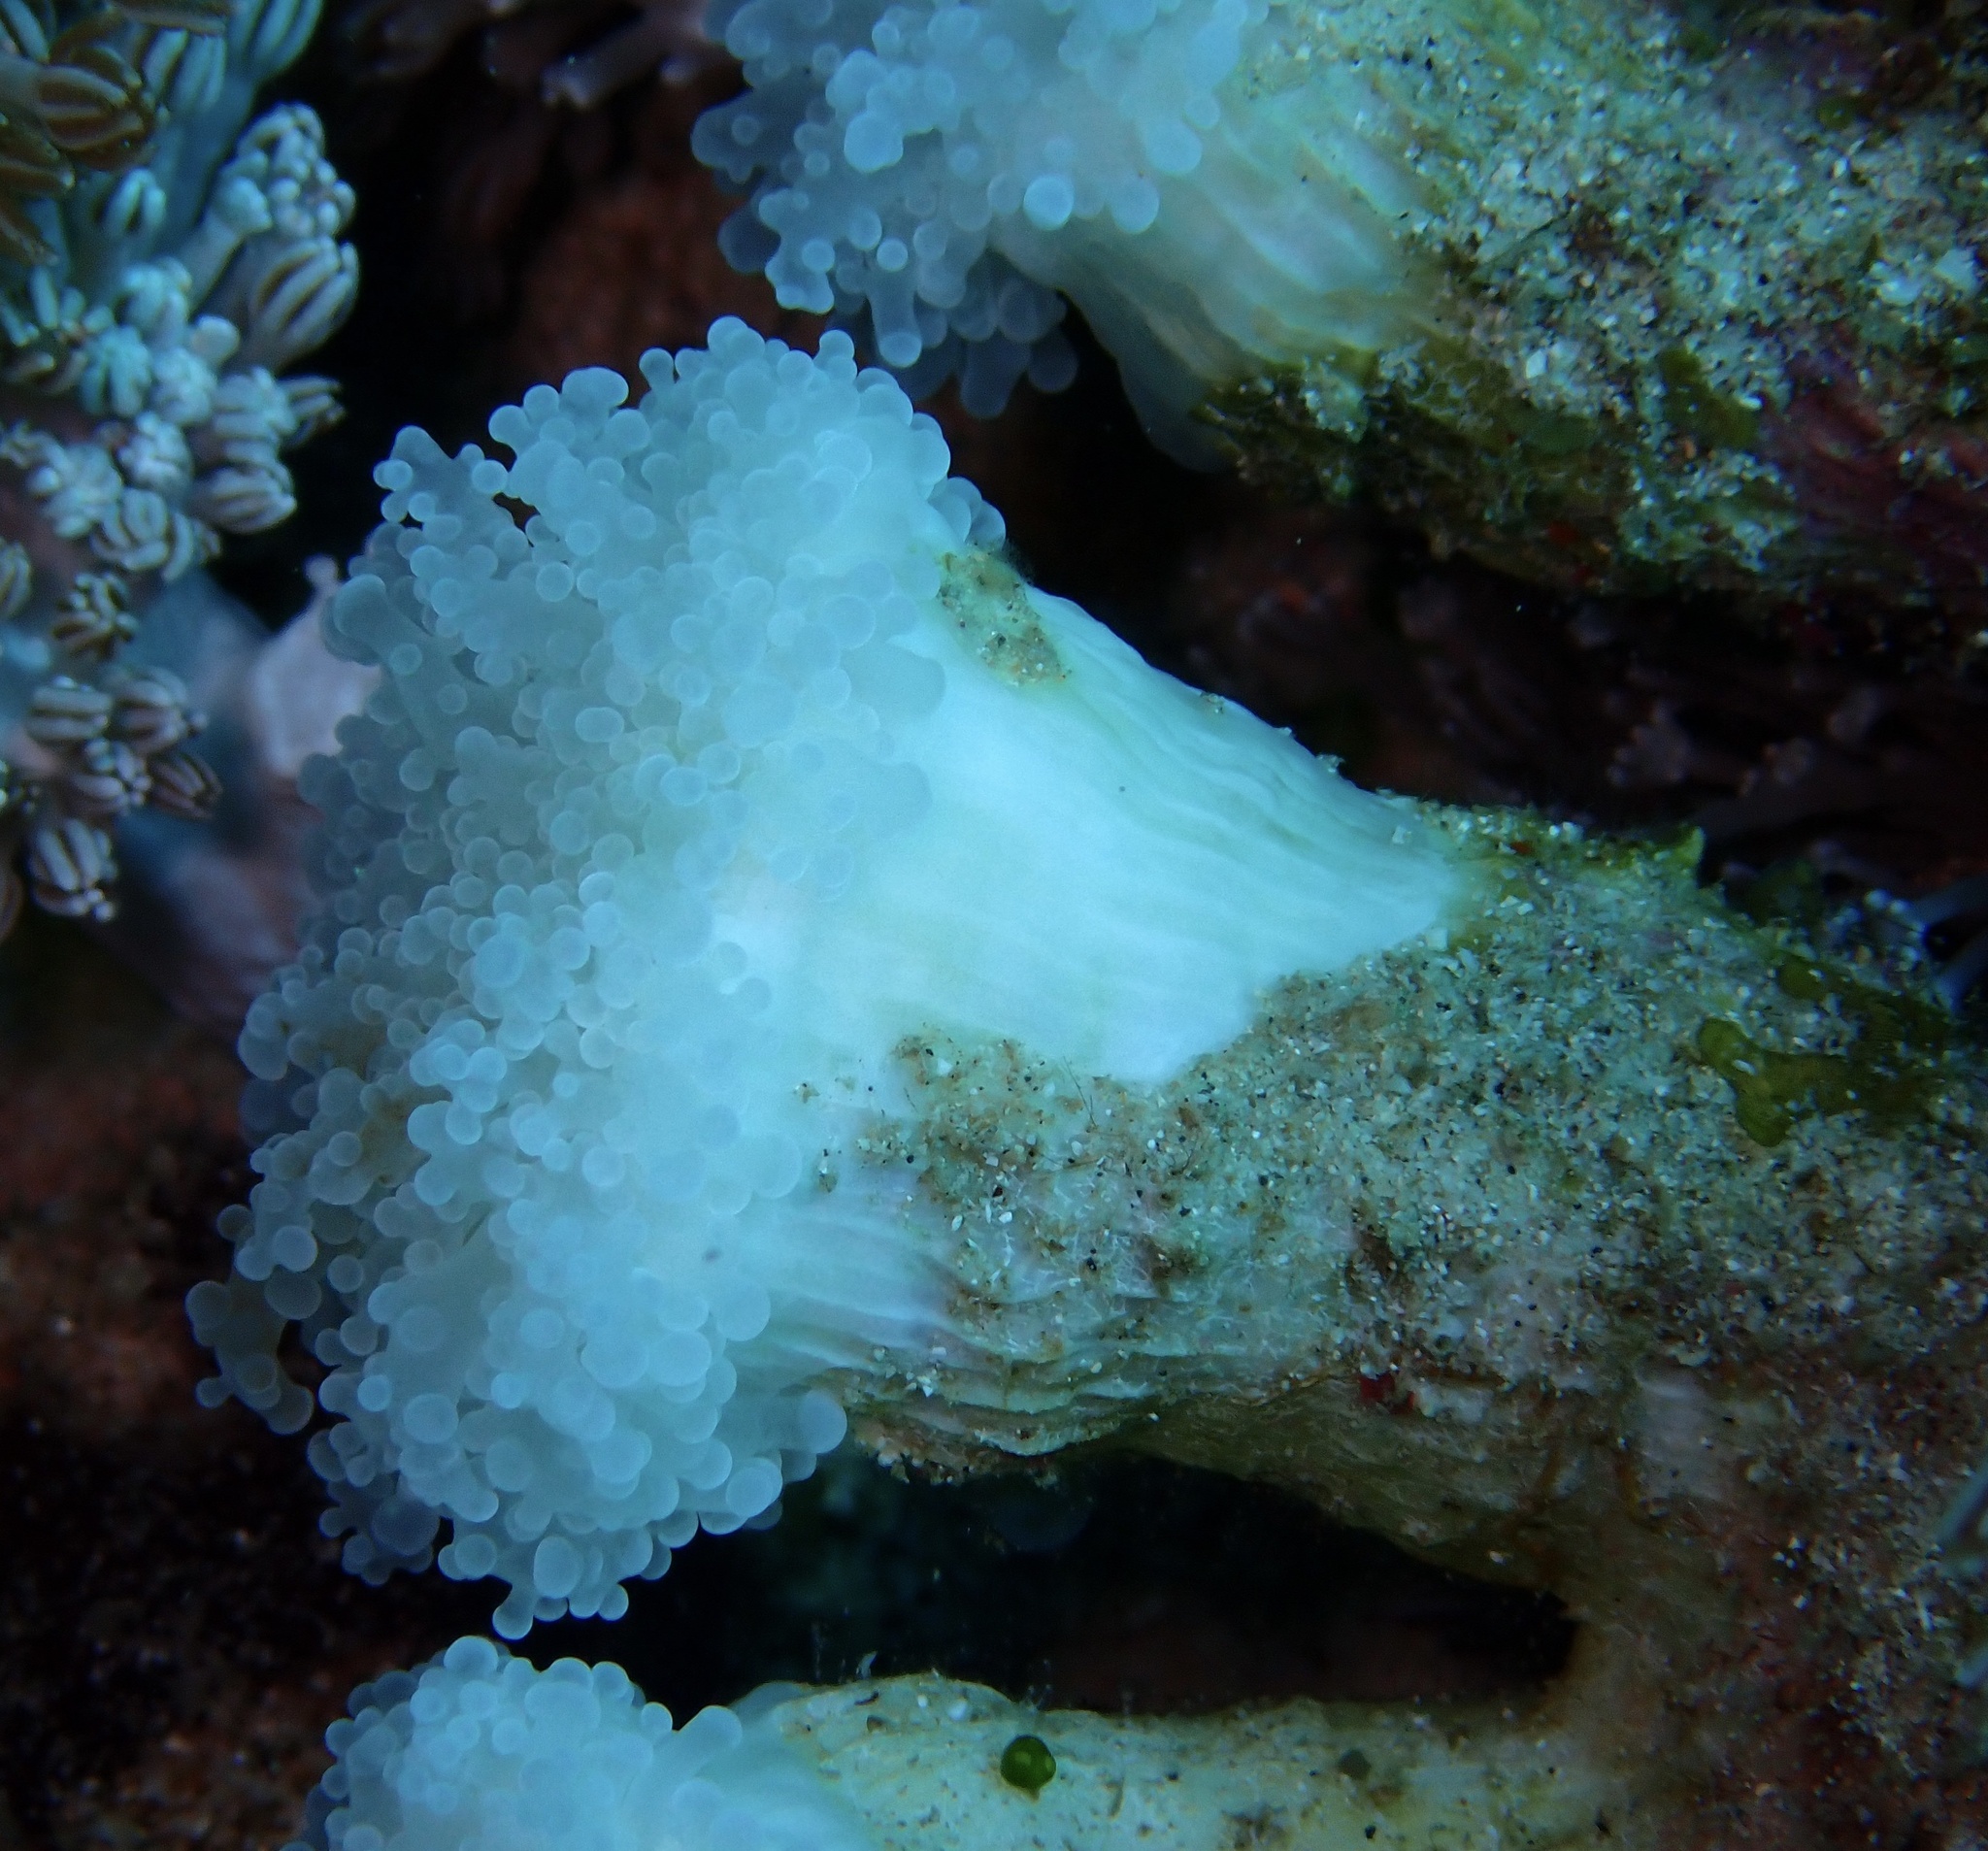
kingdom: Animalia
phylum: Cnidaria
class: Anthozoa
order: Scleractinia
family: Euphylliidae
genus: Fimbriaphyllia
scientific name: Fimbriaphyllia paradivisa
